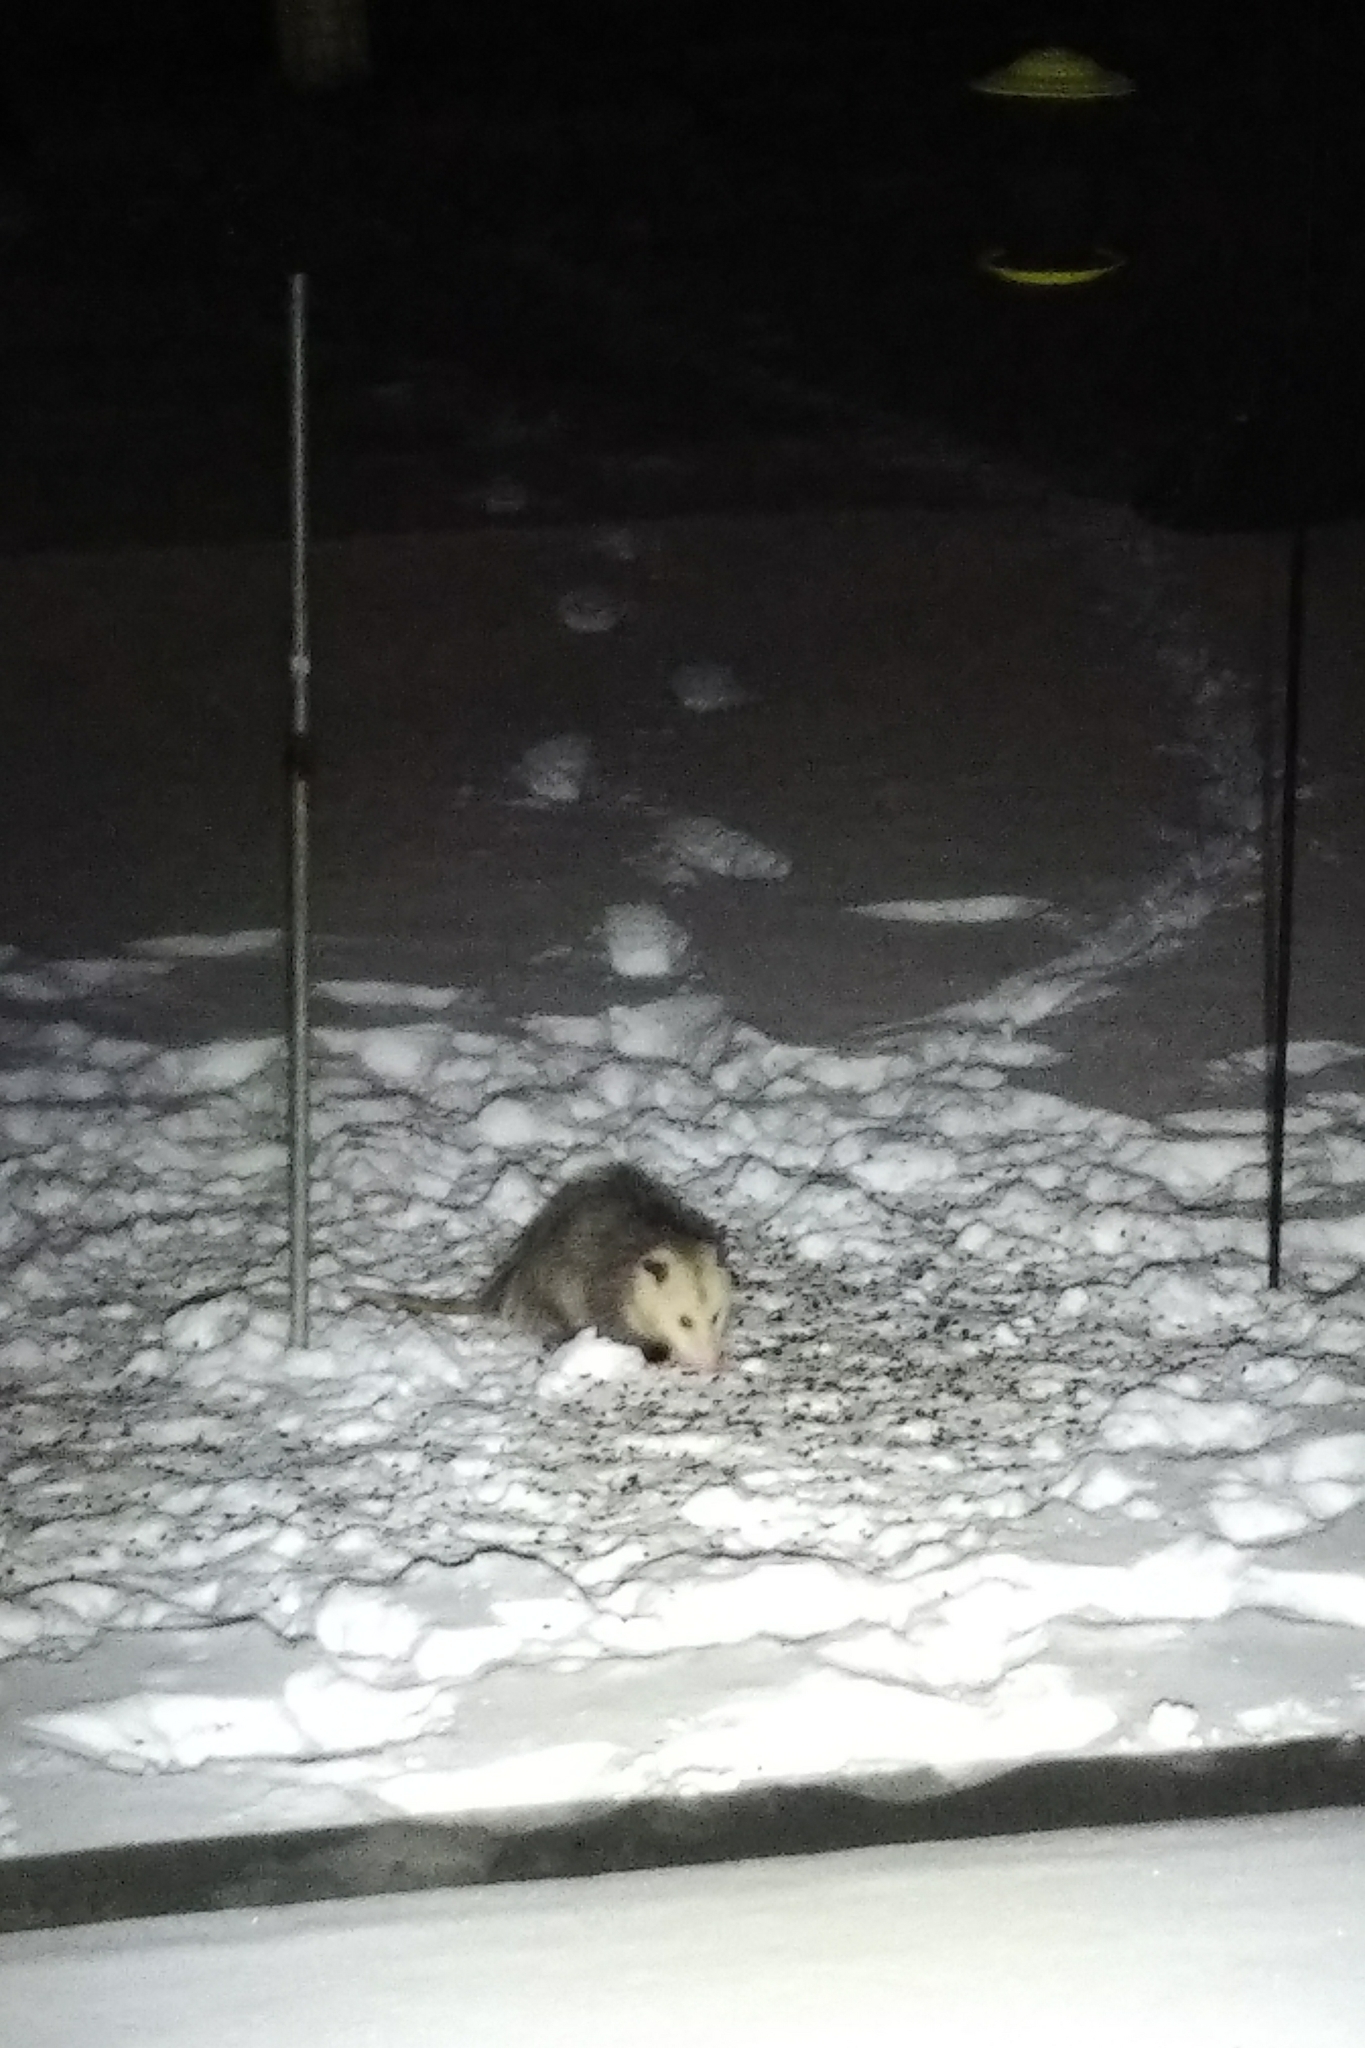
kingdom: Animalia
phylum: Chordata
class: Mammalia
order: Didelphimorphia
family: Didelphidae
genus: Didelphis
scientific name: Didelphis virginiana
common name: Virginia opossum
